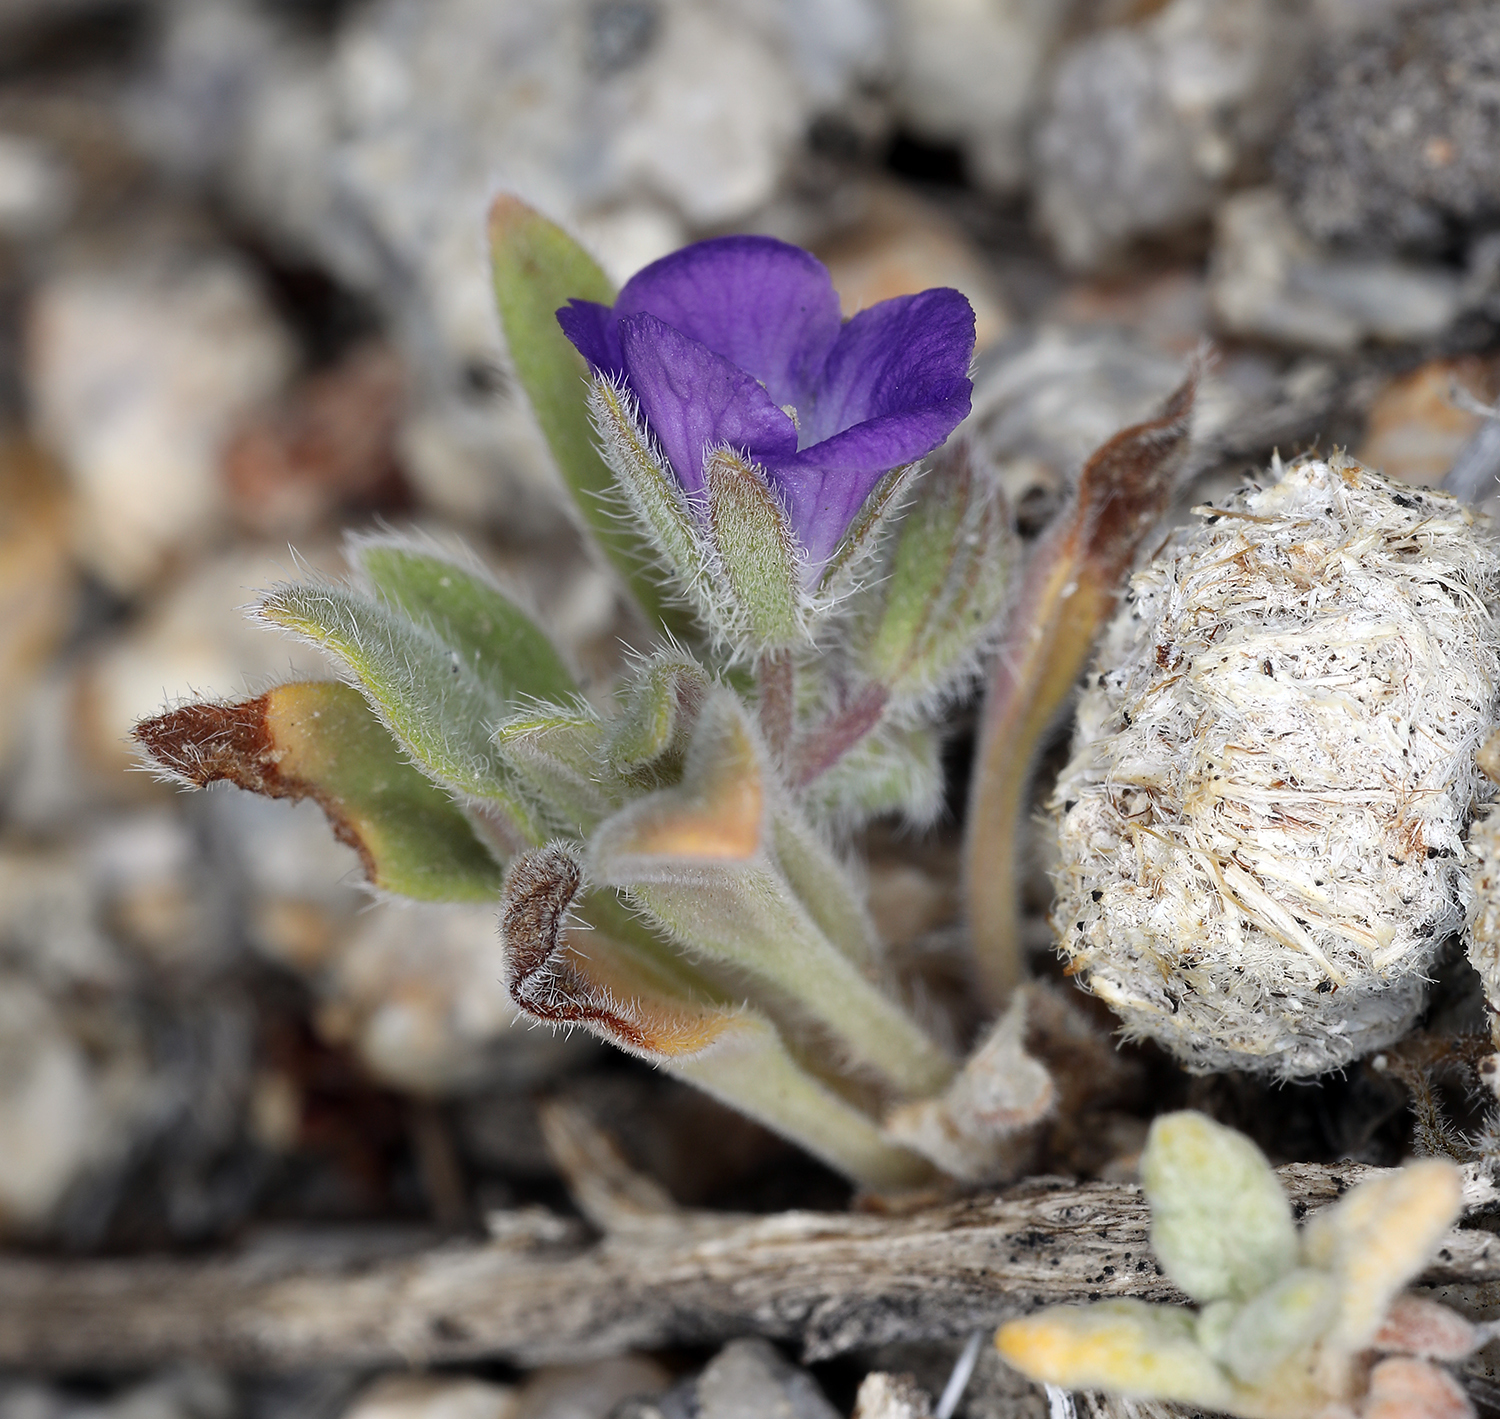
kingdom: Plantae
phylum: Tracheophyta
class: Magnoliopsida
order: Boraginales
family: Hydrophyllaceae
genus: Phacelia
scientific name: Phacelia curvipes
